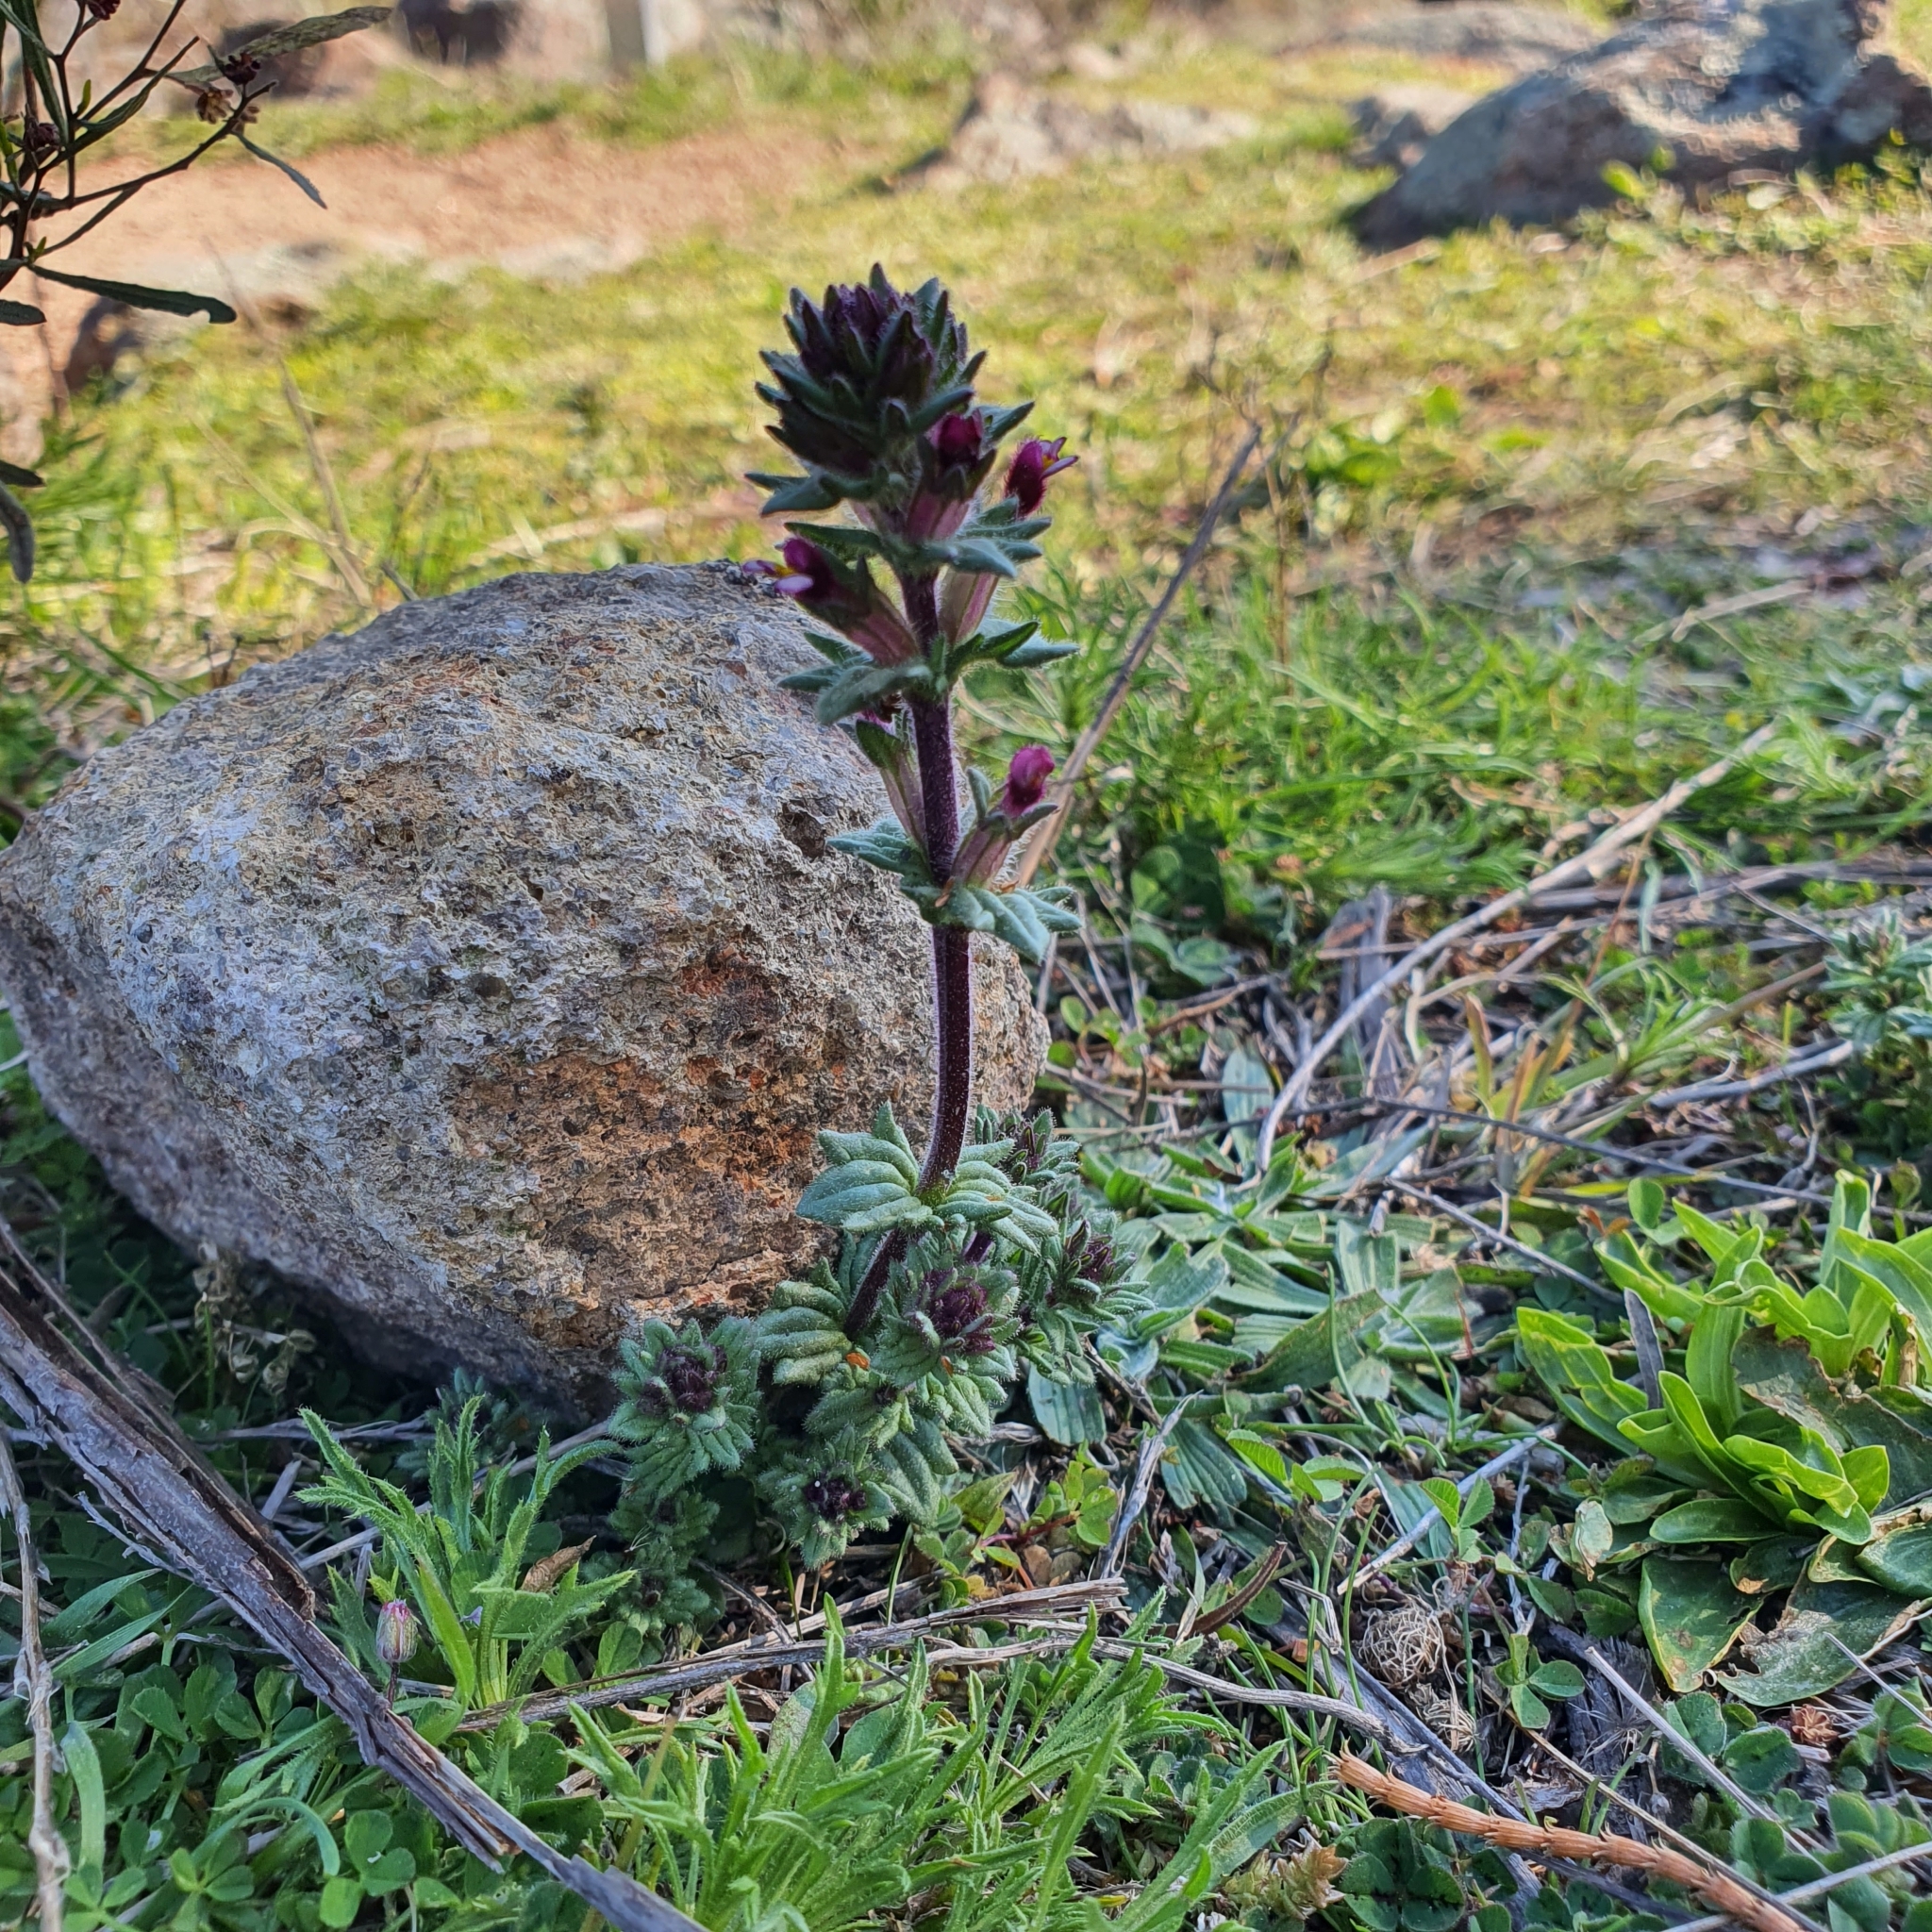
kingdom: Plantae
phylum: Tracheophyta
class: Magnoliopsida
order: Lamiales
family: Orobanchaceae
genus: Parentucellia
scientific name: Parentucellia latifolia
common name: Broadleaf glandweed
